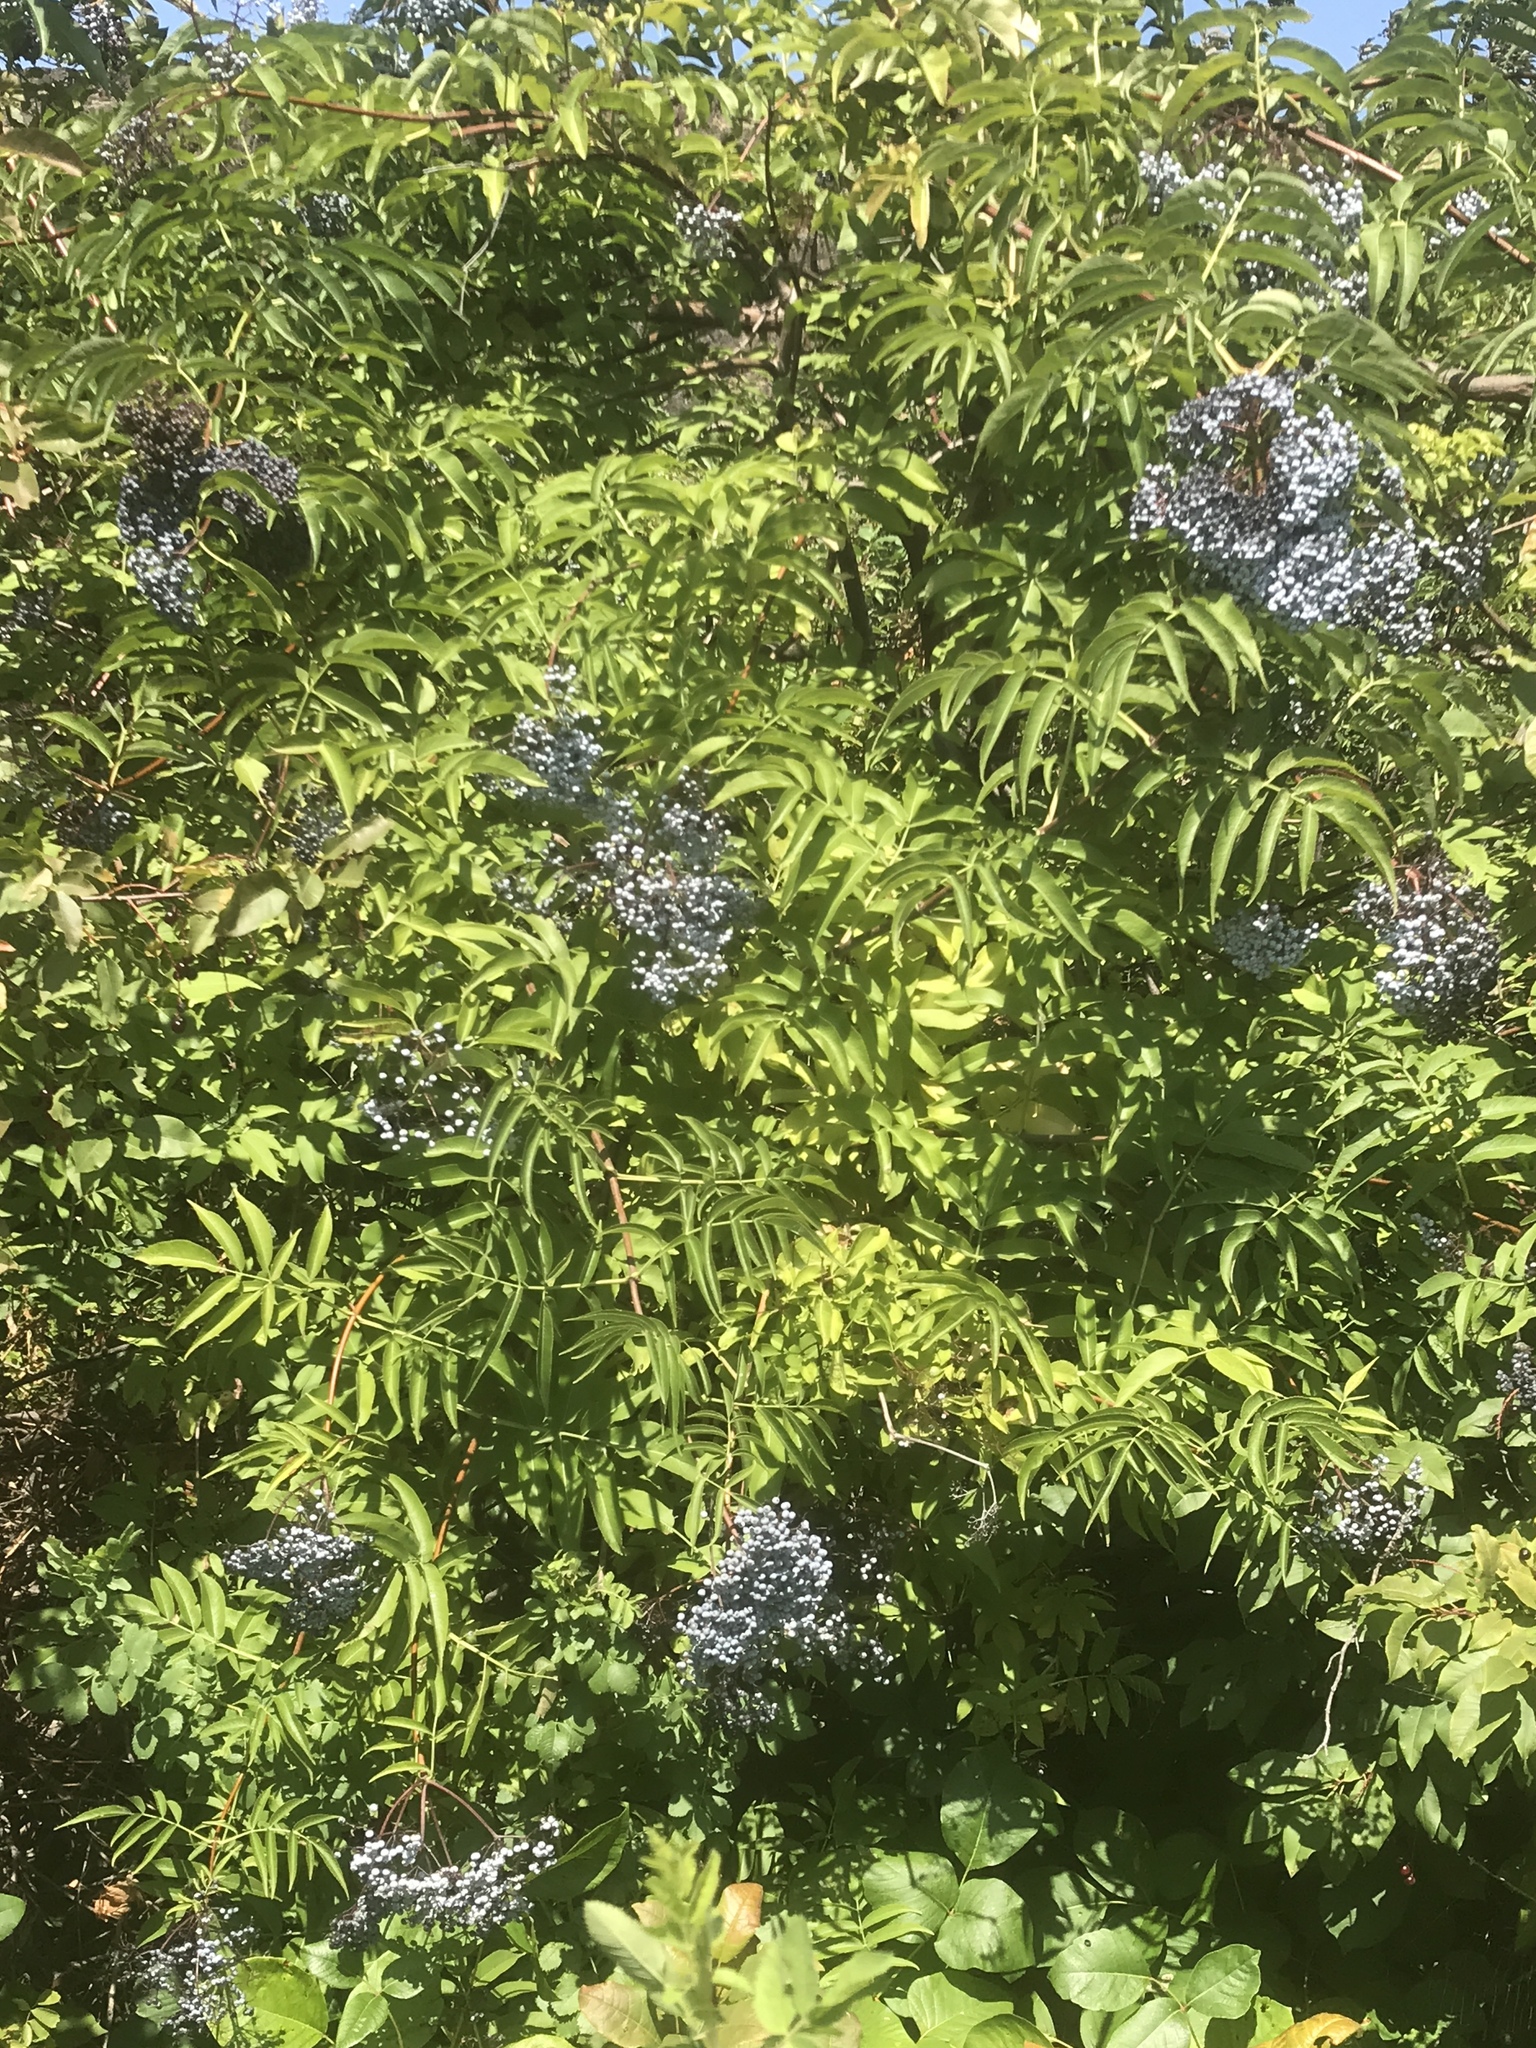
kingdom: Plantae
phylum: Tracheophyta
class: Magnoliopsida
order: Dipsacales
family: Viburnaceae
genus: Sambucus
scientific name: Sambucus cerulea
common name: Blue elder
